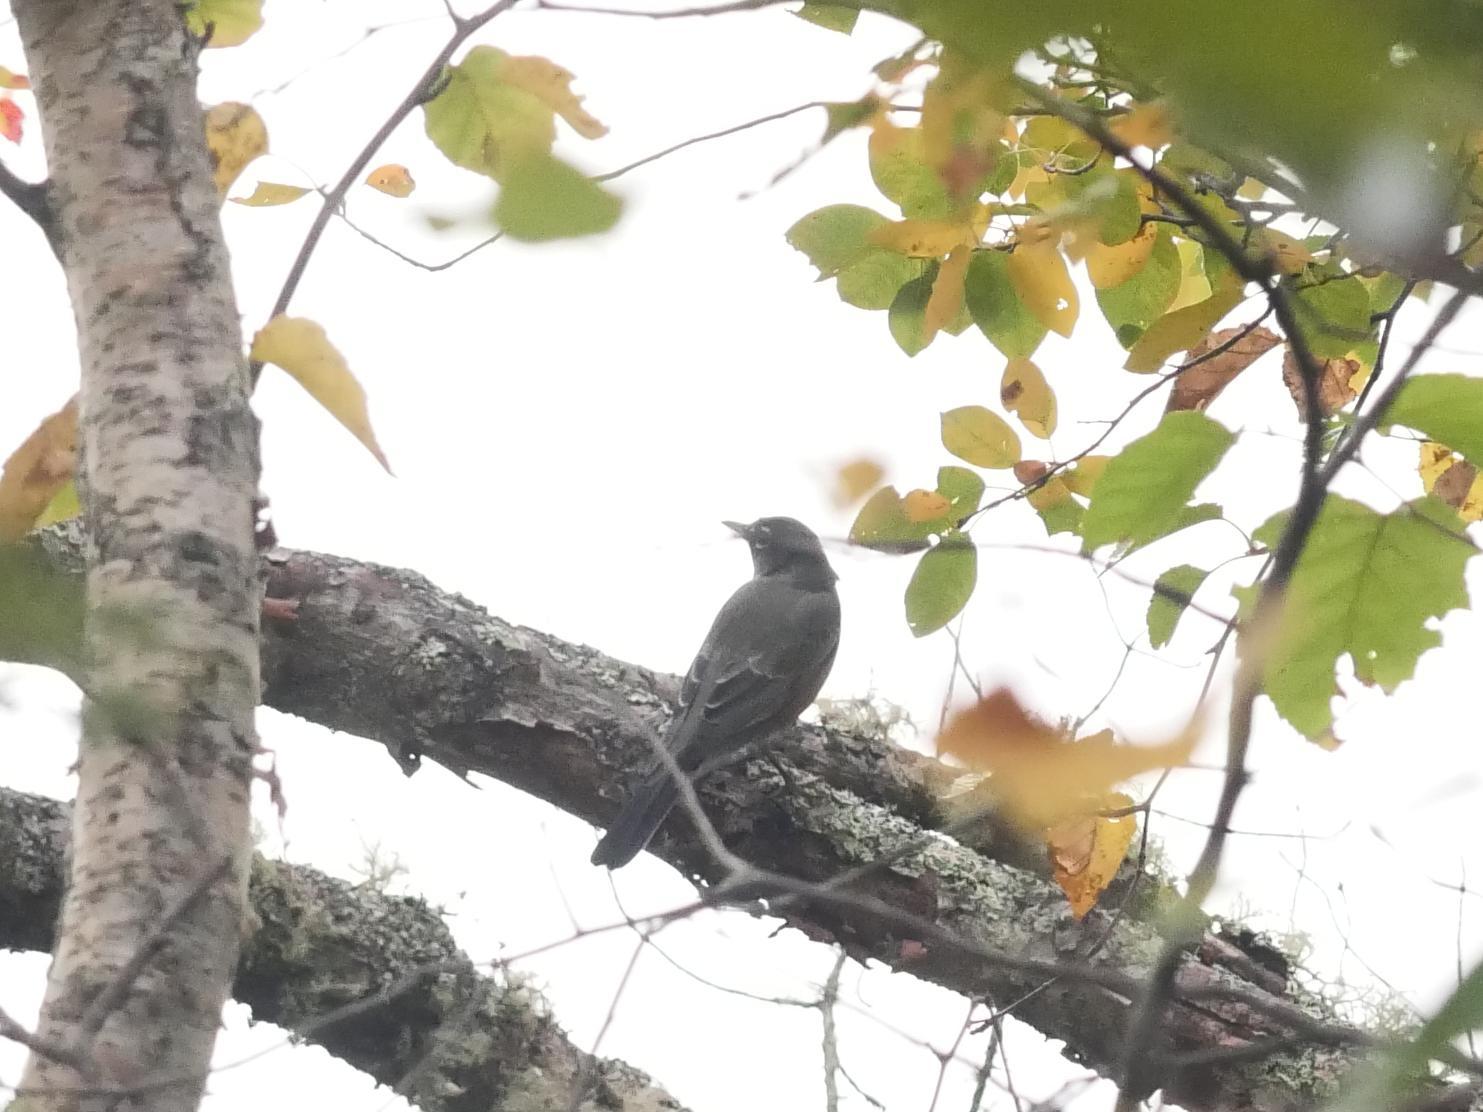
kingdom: Animalia
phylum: Chordata
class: Aves
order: Passeriformes
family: Turdidae
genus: Turdus
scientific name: Turdus migratorius
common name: American robin
